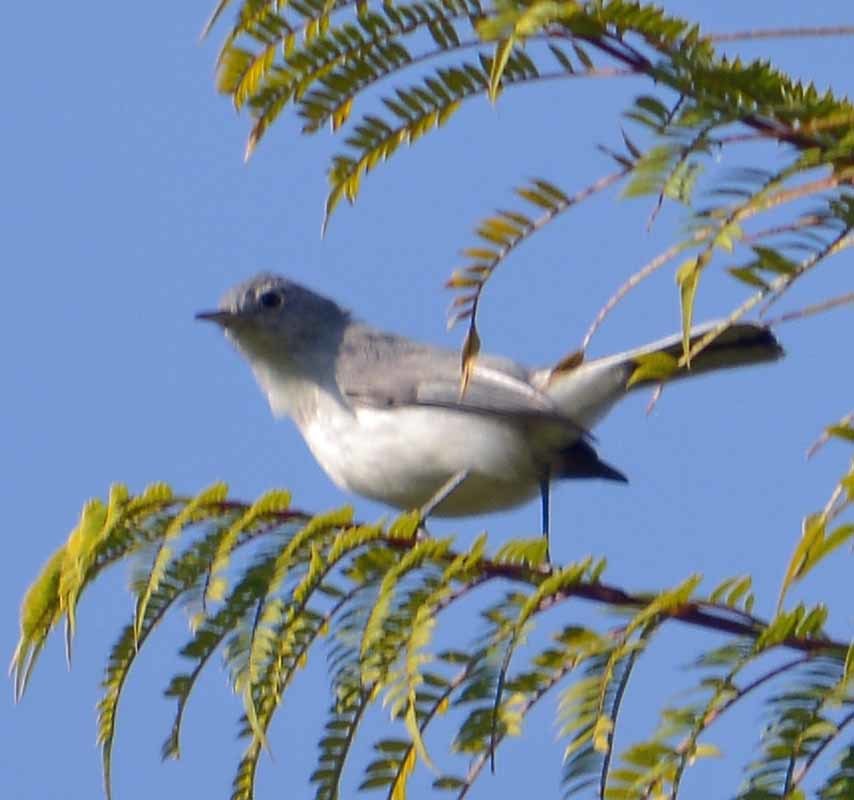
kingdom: Animalia
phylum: Chordata
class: Aves
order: Passeriformes
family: Polioptilidae
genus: Polioptila
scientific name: Polioptila caerulea
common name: Blue-gray gnatcatcher
